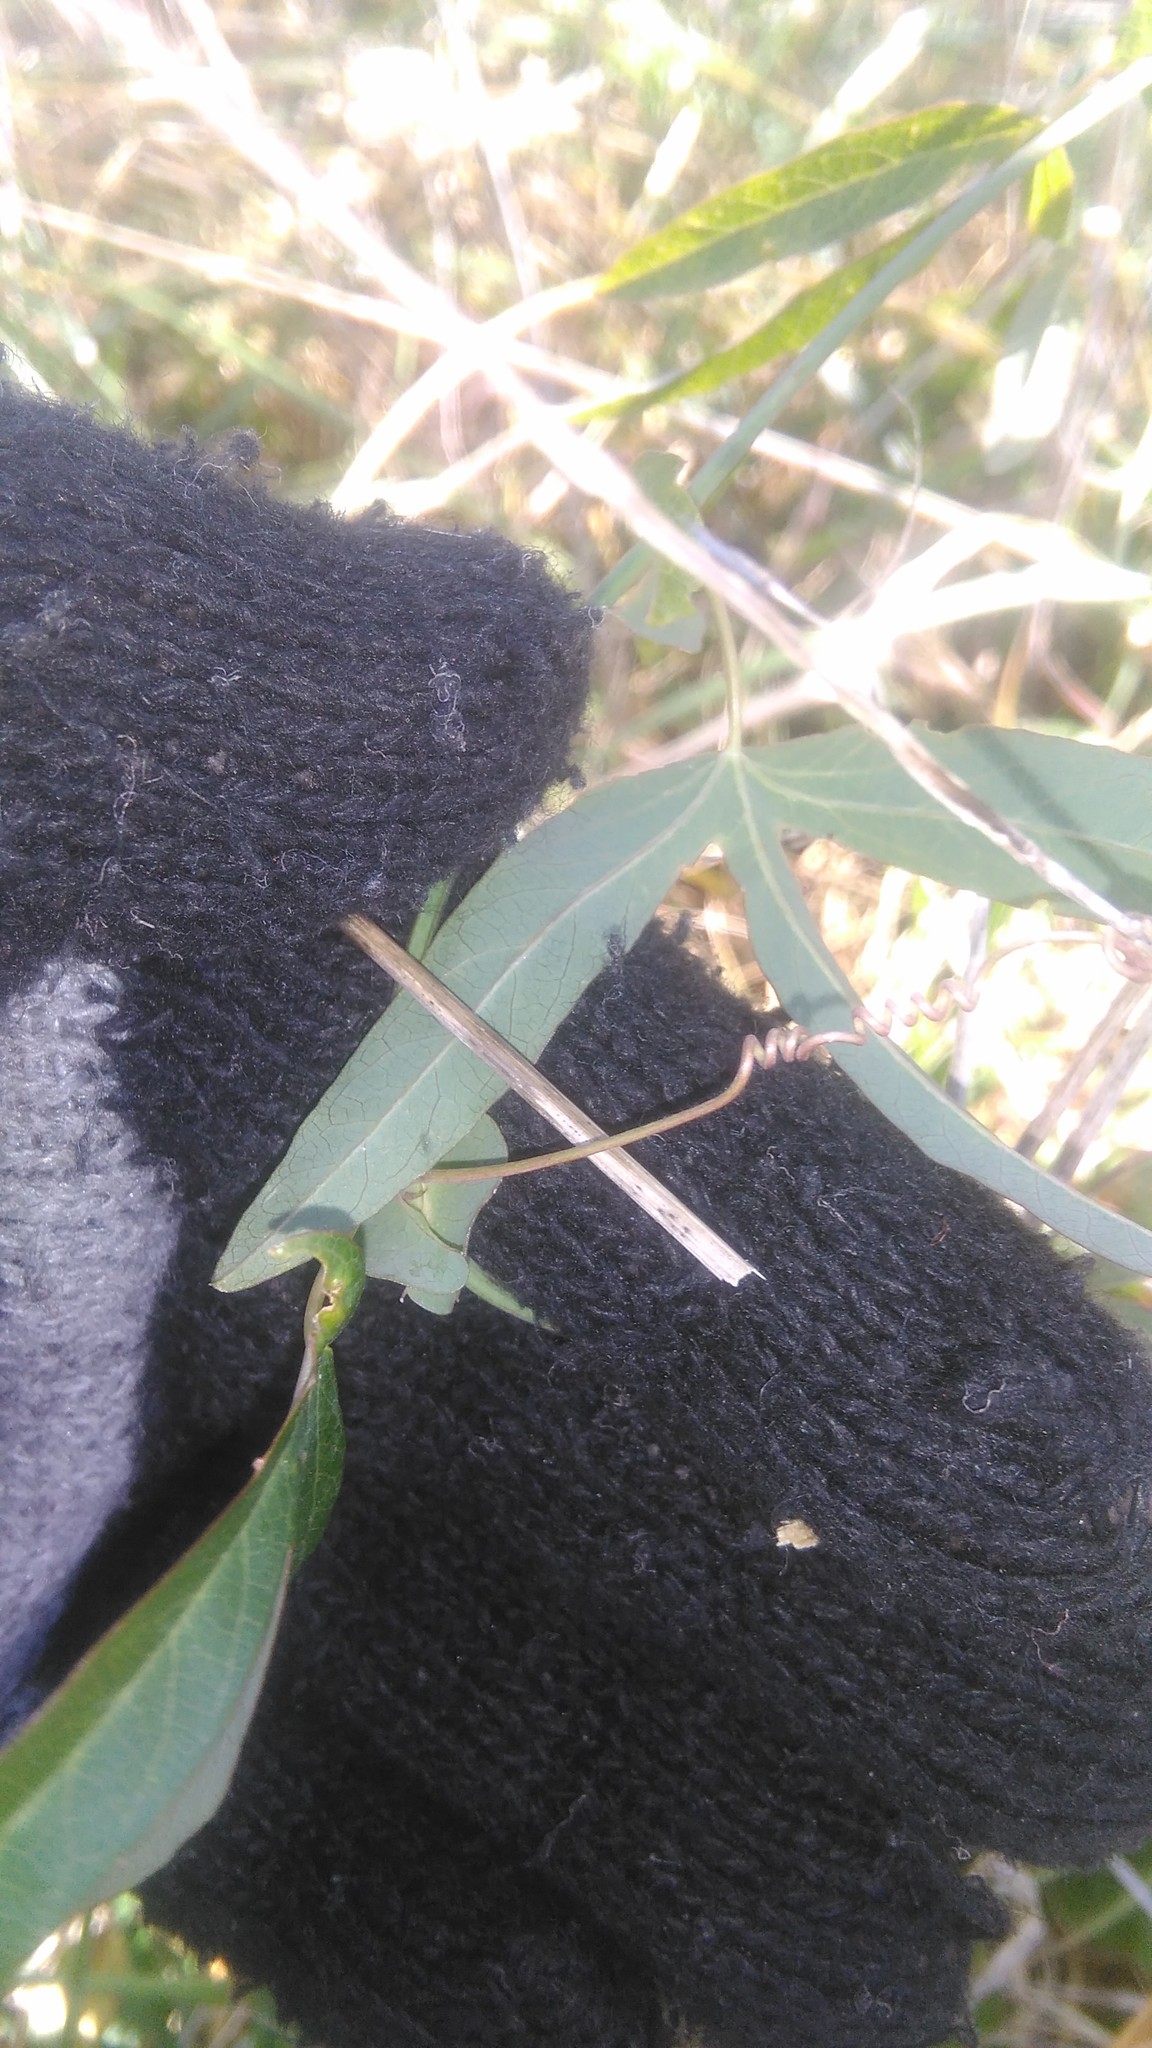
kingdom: Plantae
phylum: Tracheophyta
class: Magnoliopsida
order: Malpighiales
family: Passifloraceae
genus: Passiflora
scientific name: Passiflora caerulea
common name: Blue passionflower
